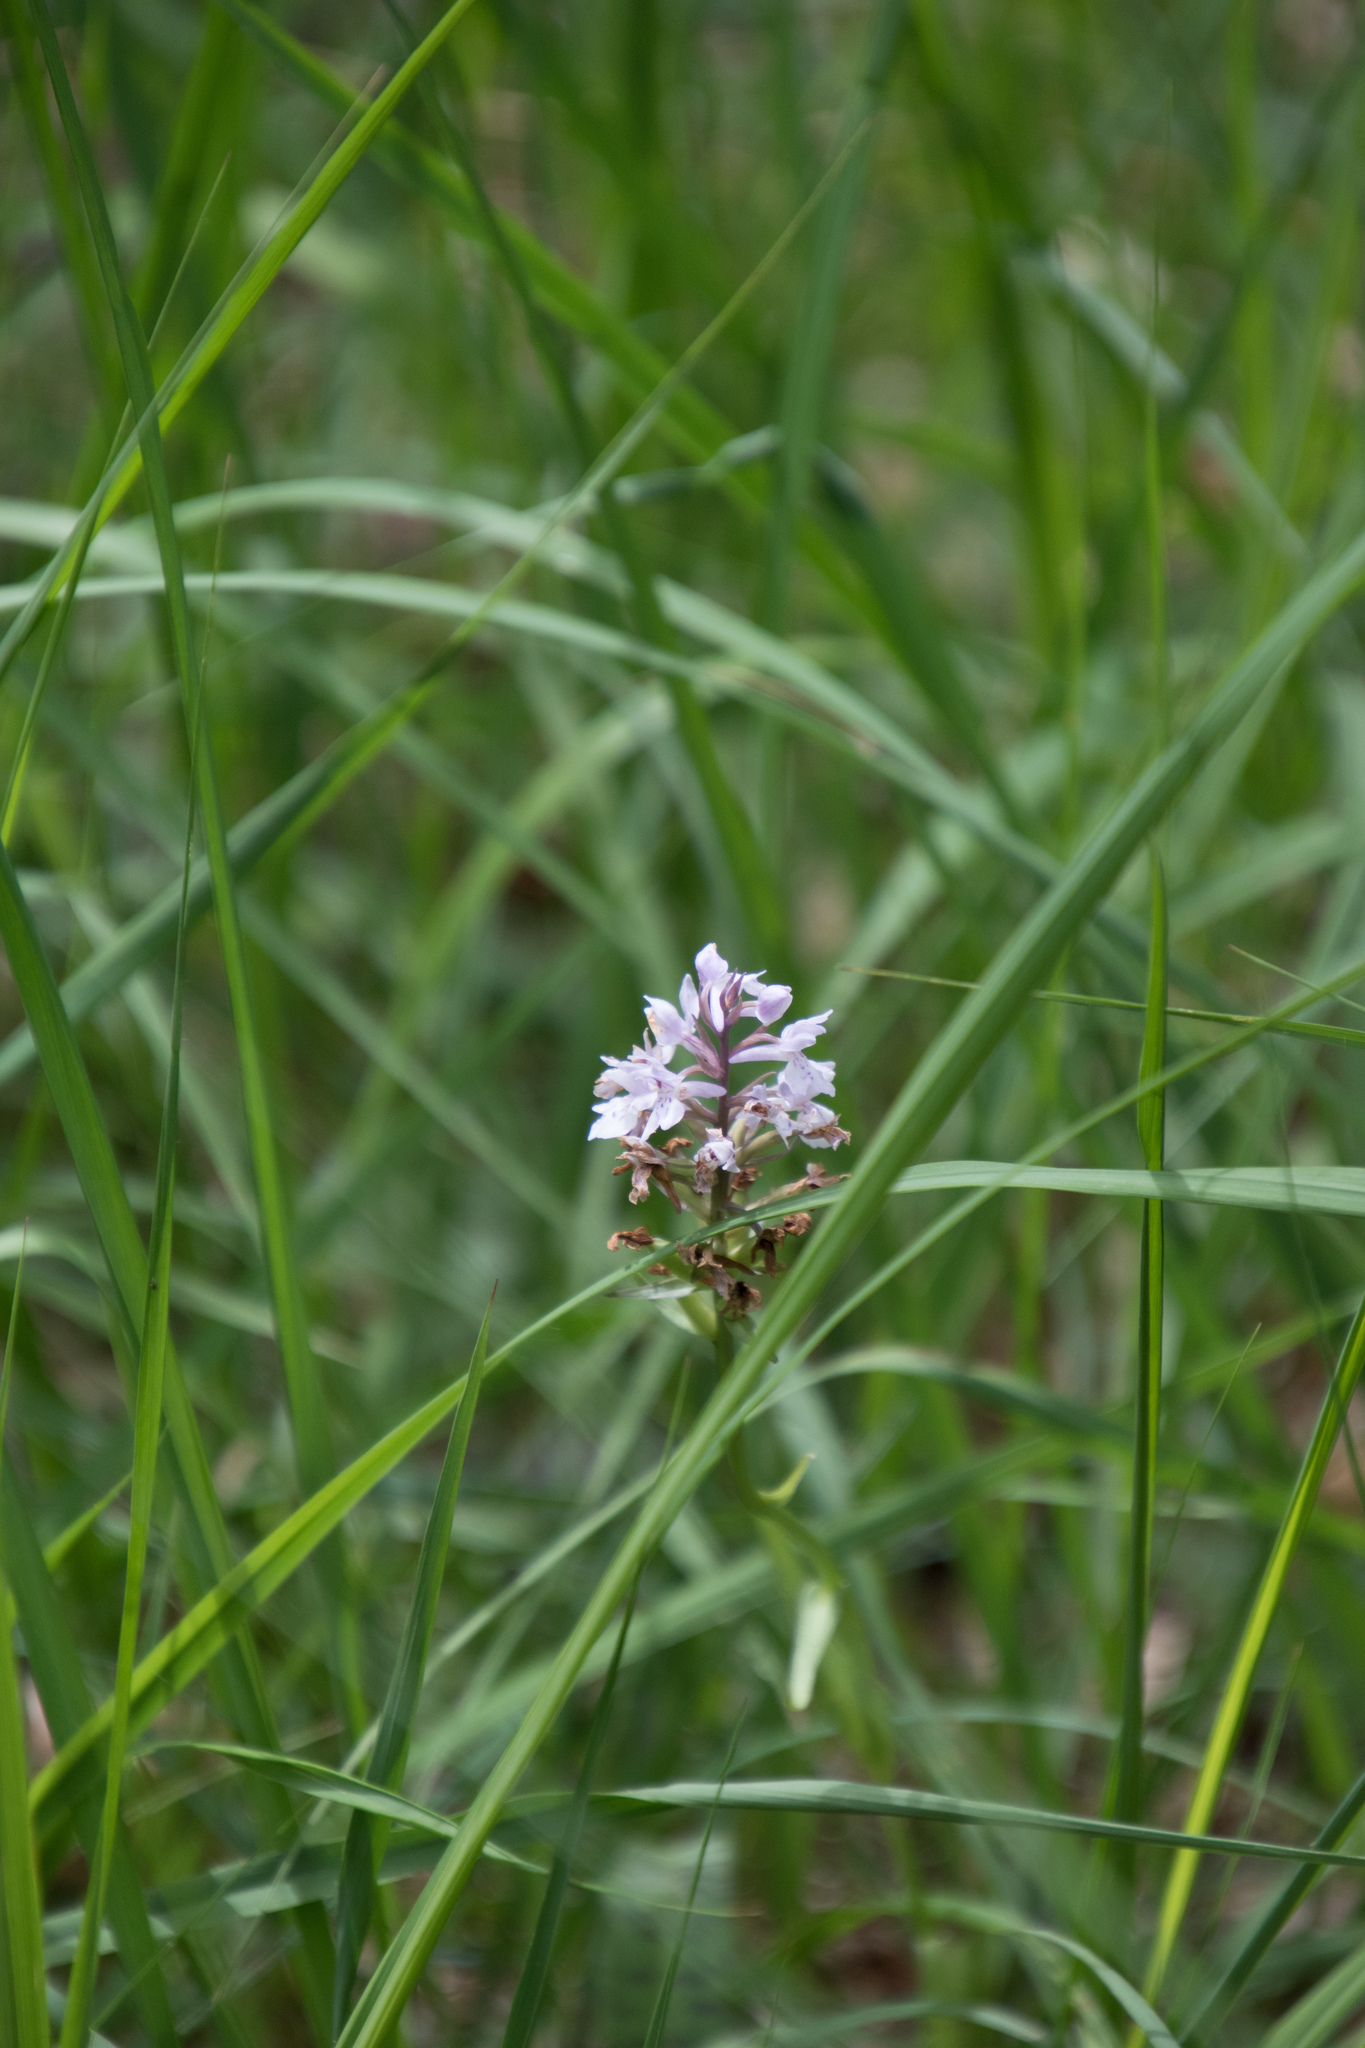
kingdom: Plantae
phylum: Tracheophyta
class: Liliopsida
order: Asparagales
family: Orchidaceae
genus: Dactylorhiza
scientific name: Dactylorhiza maculata
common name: Heath spotted-orchid
